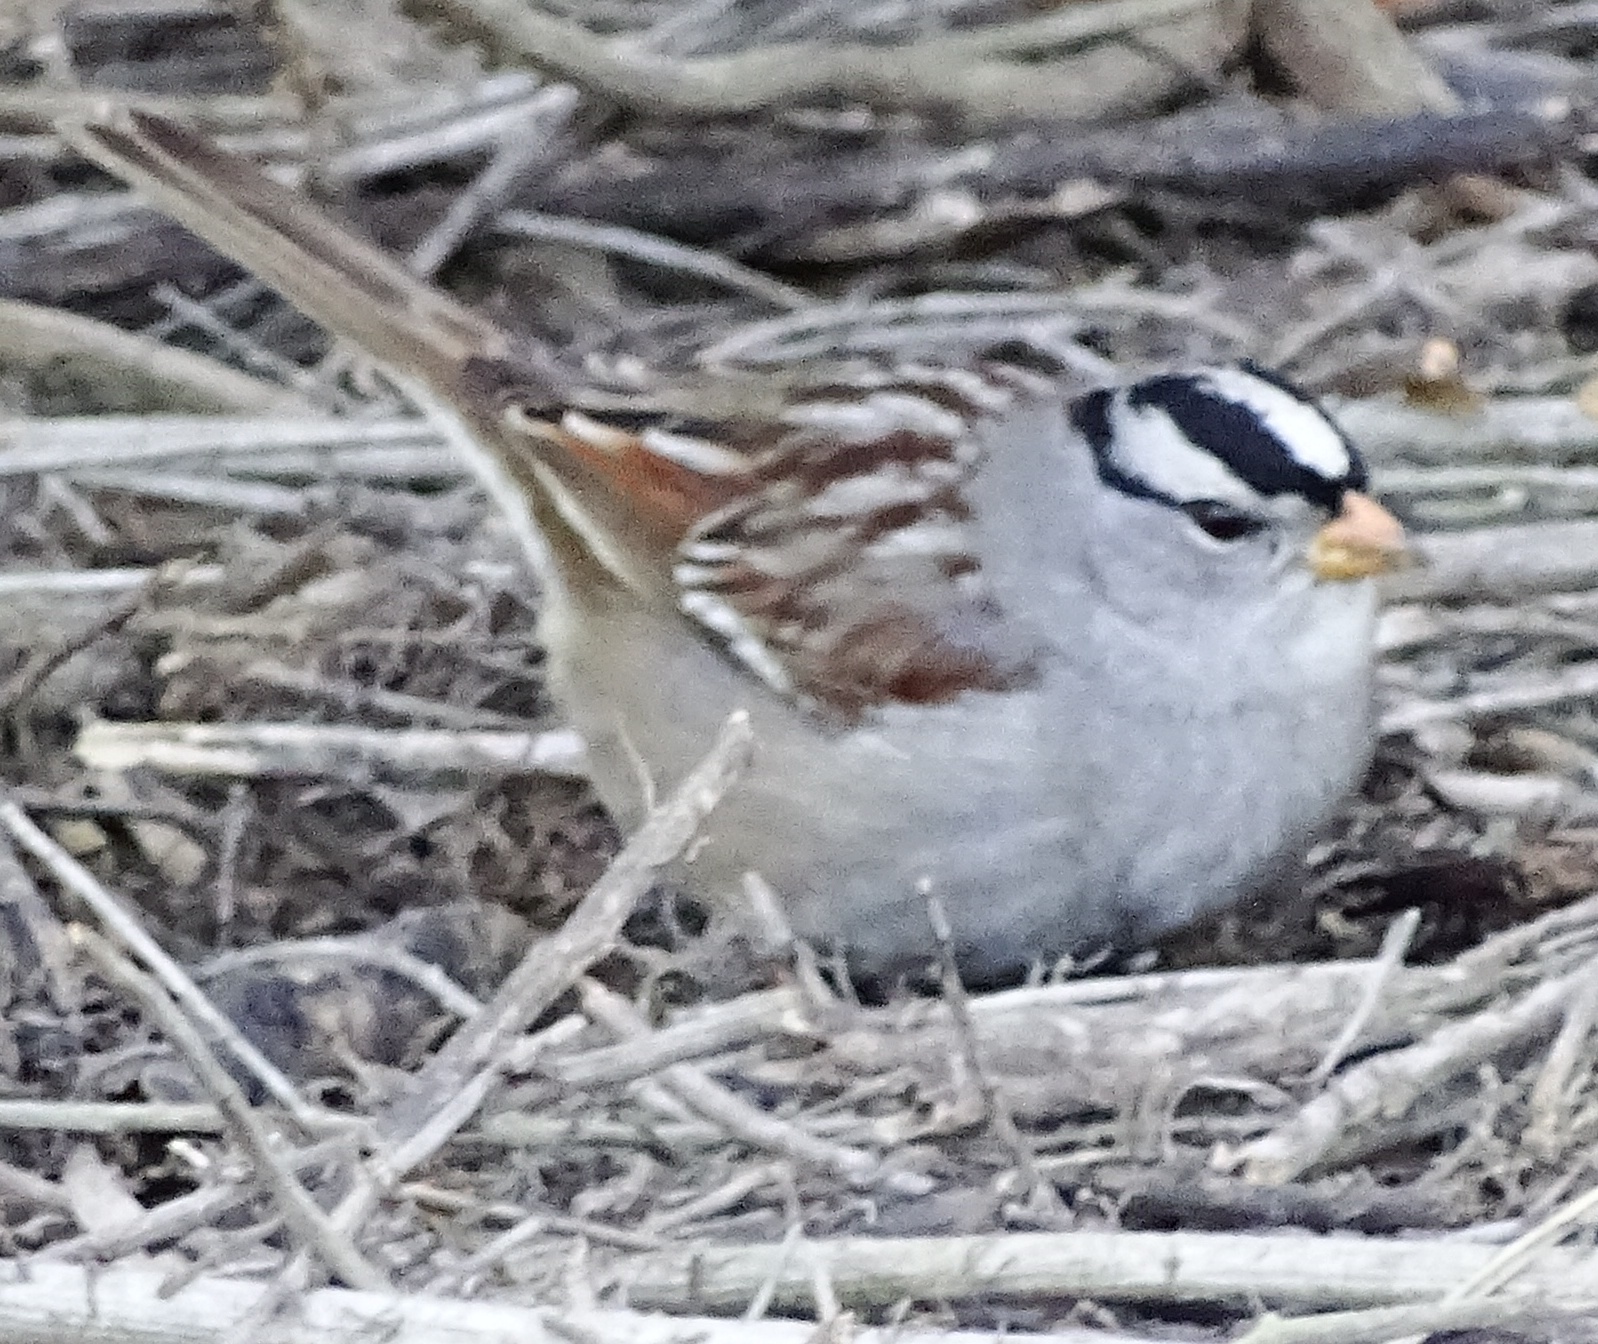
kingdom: Animalia
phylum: Chordata
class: Aves
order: Passeriformes
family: Passerellidae
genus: Zonotrichia
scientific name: Zonotrichia leucophrys
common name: White-crowned sparrow
